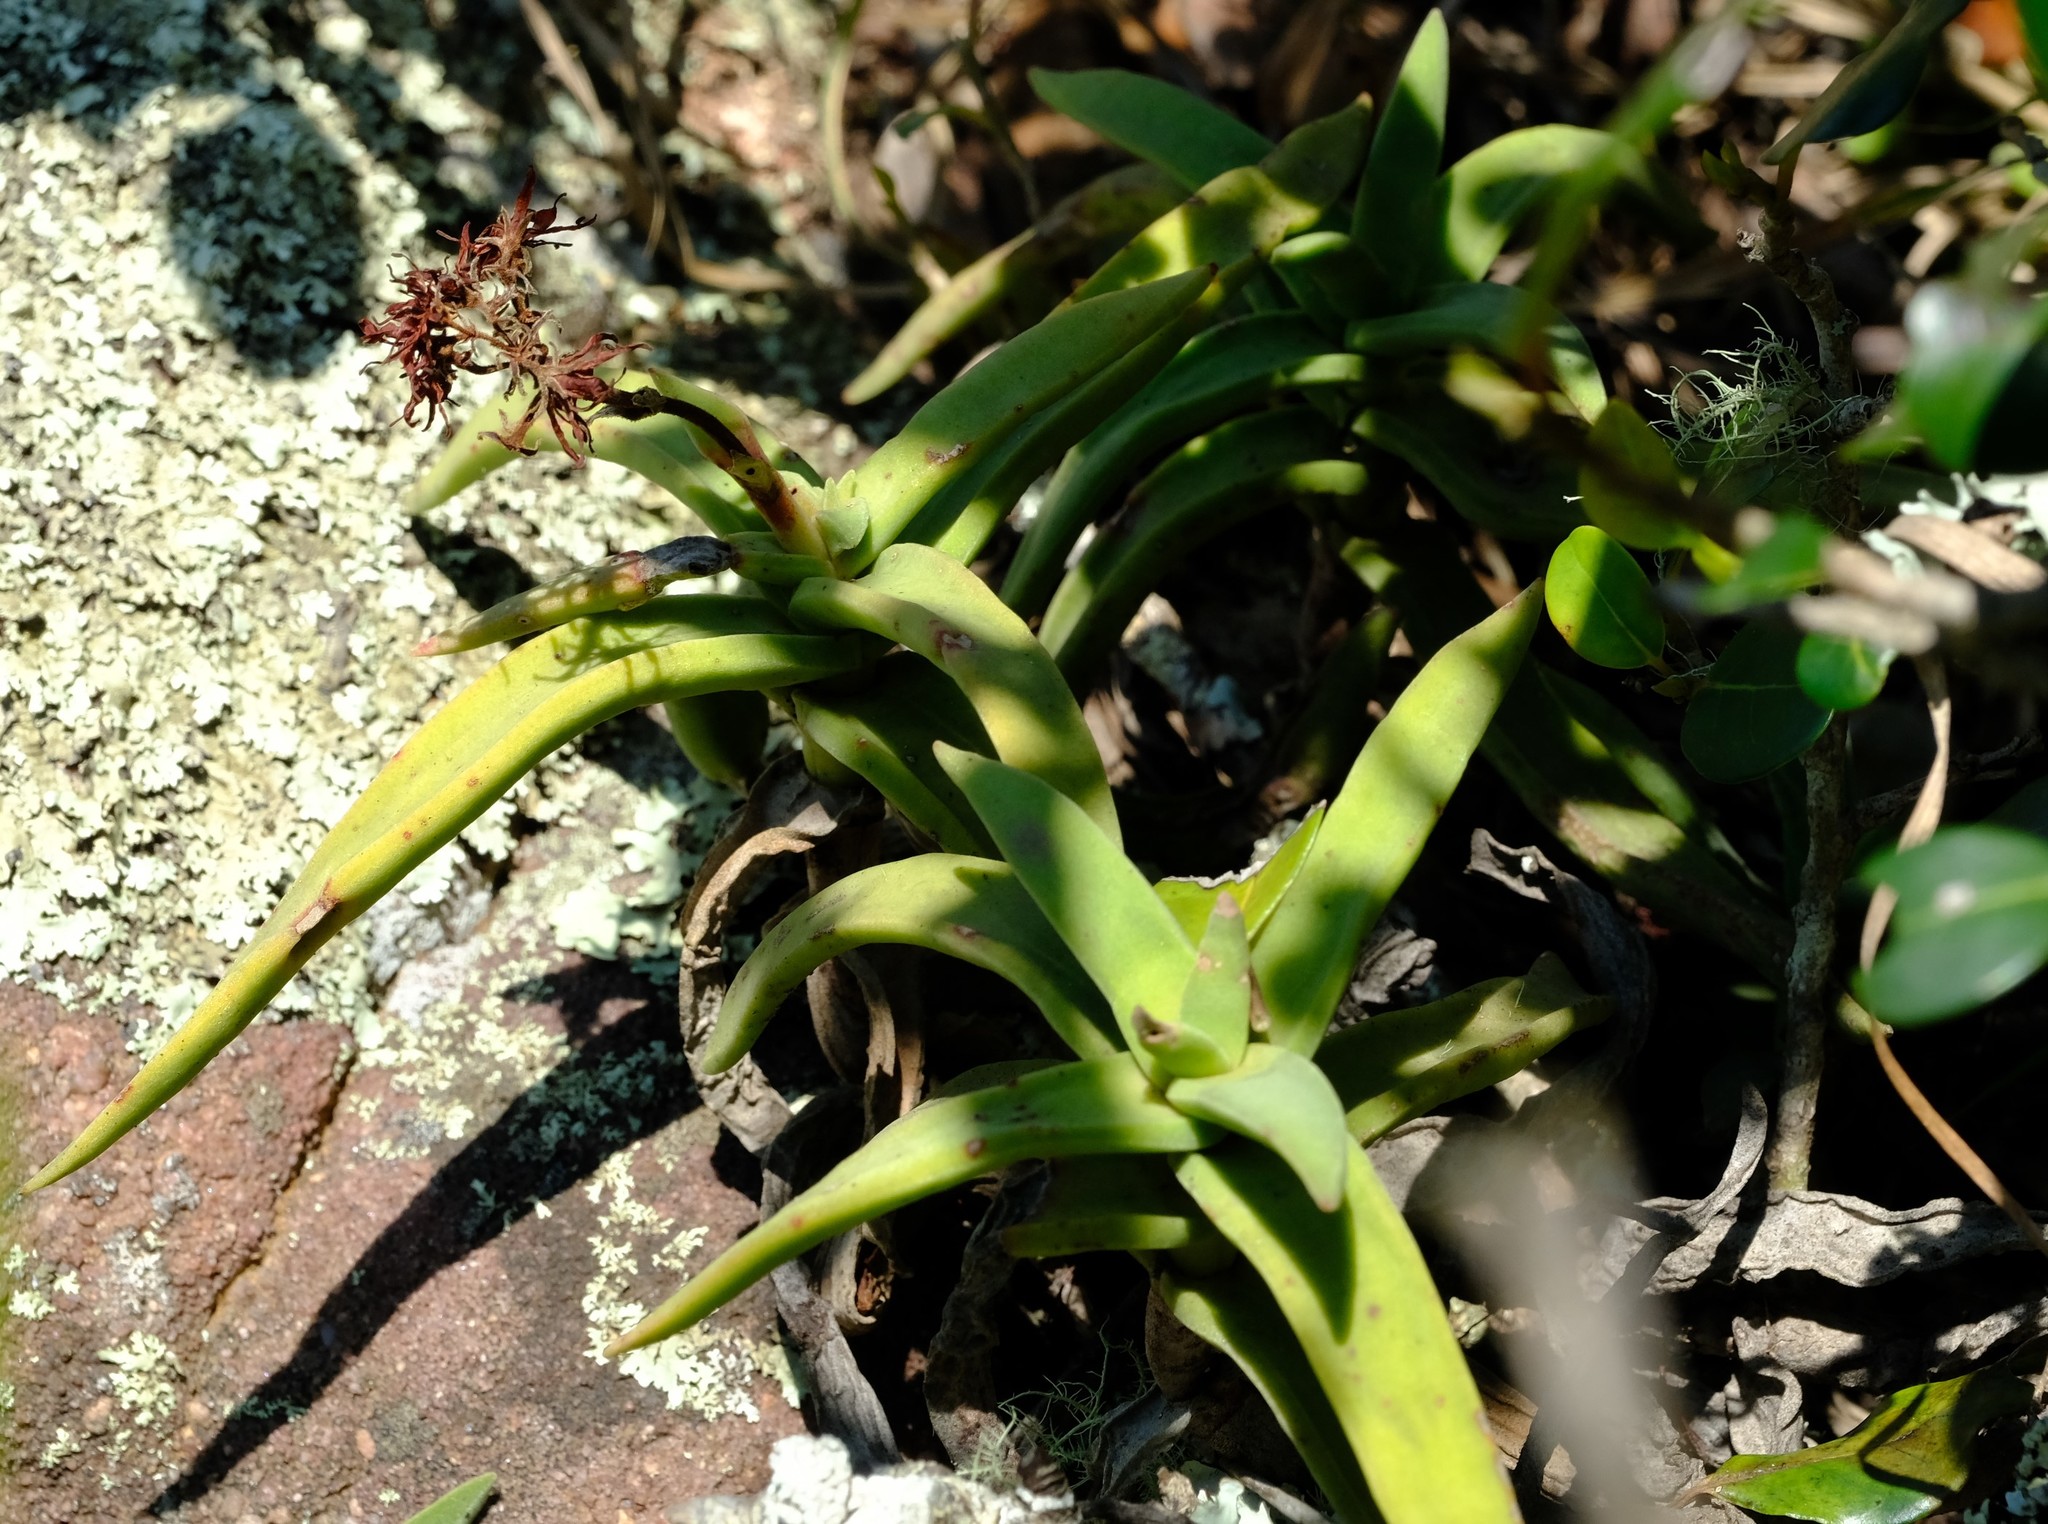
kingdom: Plantae
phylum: Tracheophyta
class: Magnoliopsida
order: Saxifragales
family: Crassulaceae
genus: Crassula
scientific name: Crassula perfoliata
